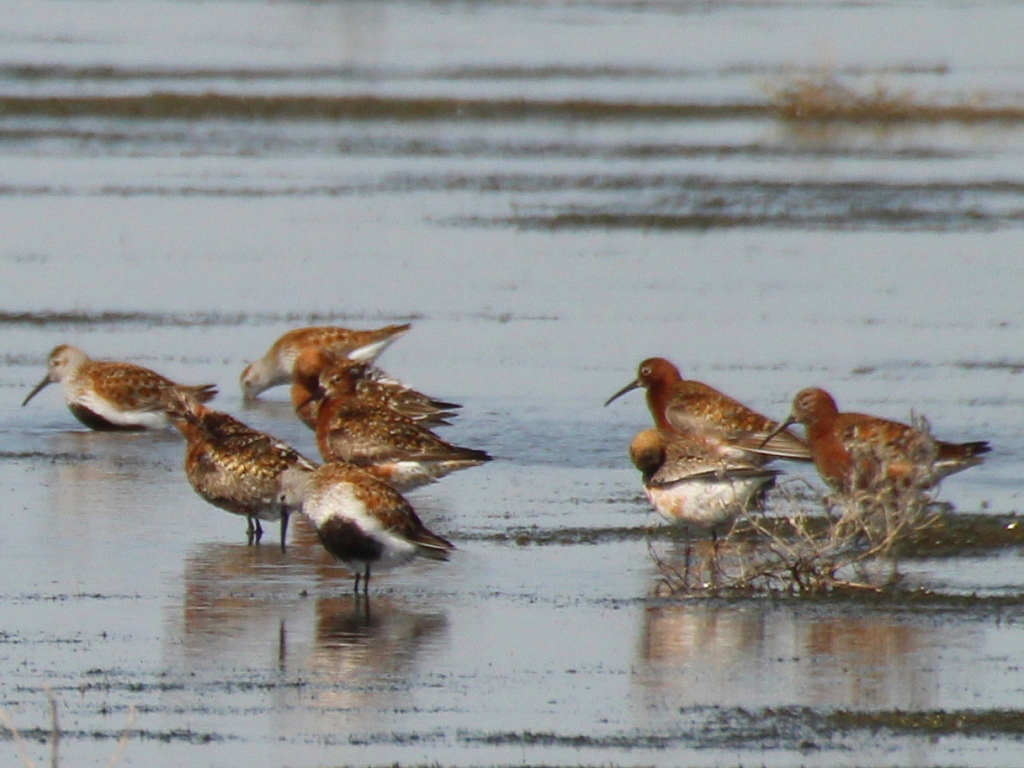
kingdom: Animalia
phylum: Chordata
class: Aves
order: Charadriiformes
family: Scolopacidae
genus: Calidris
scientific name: Calidris alpina
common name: Dunlin
